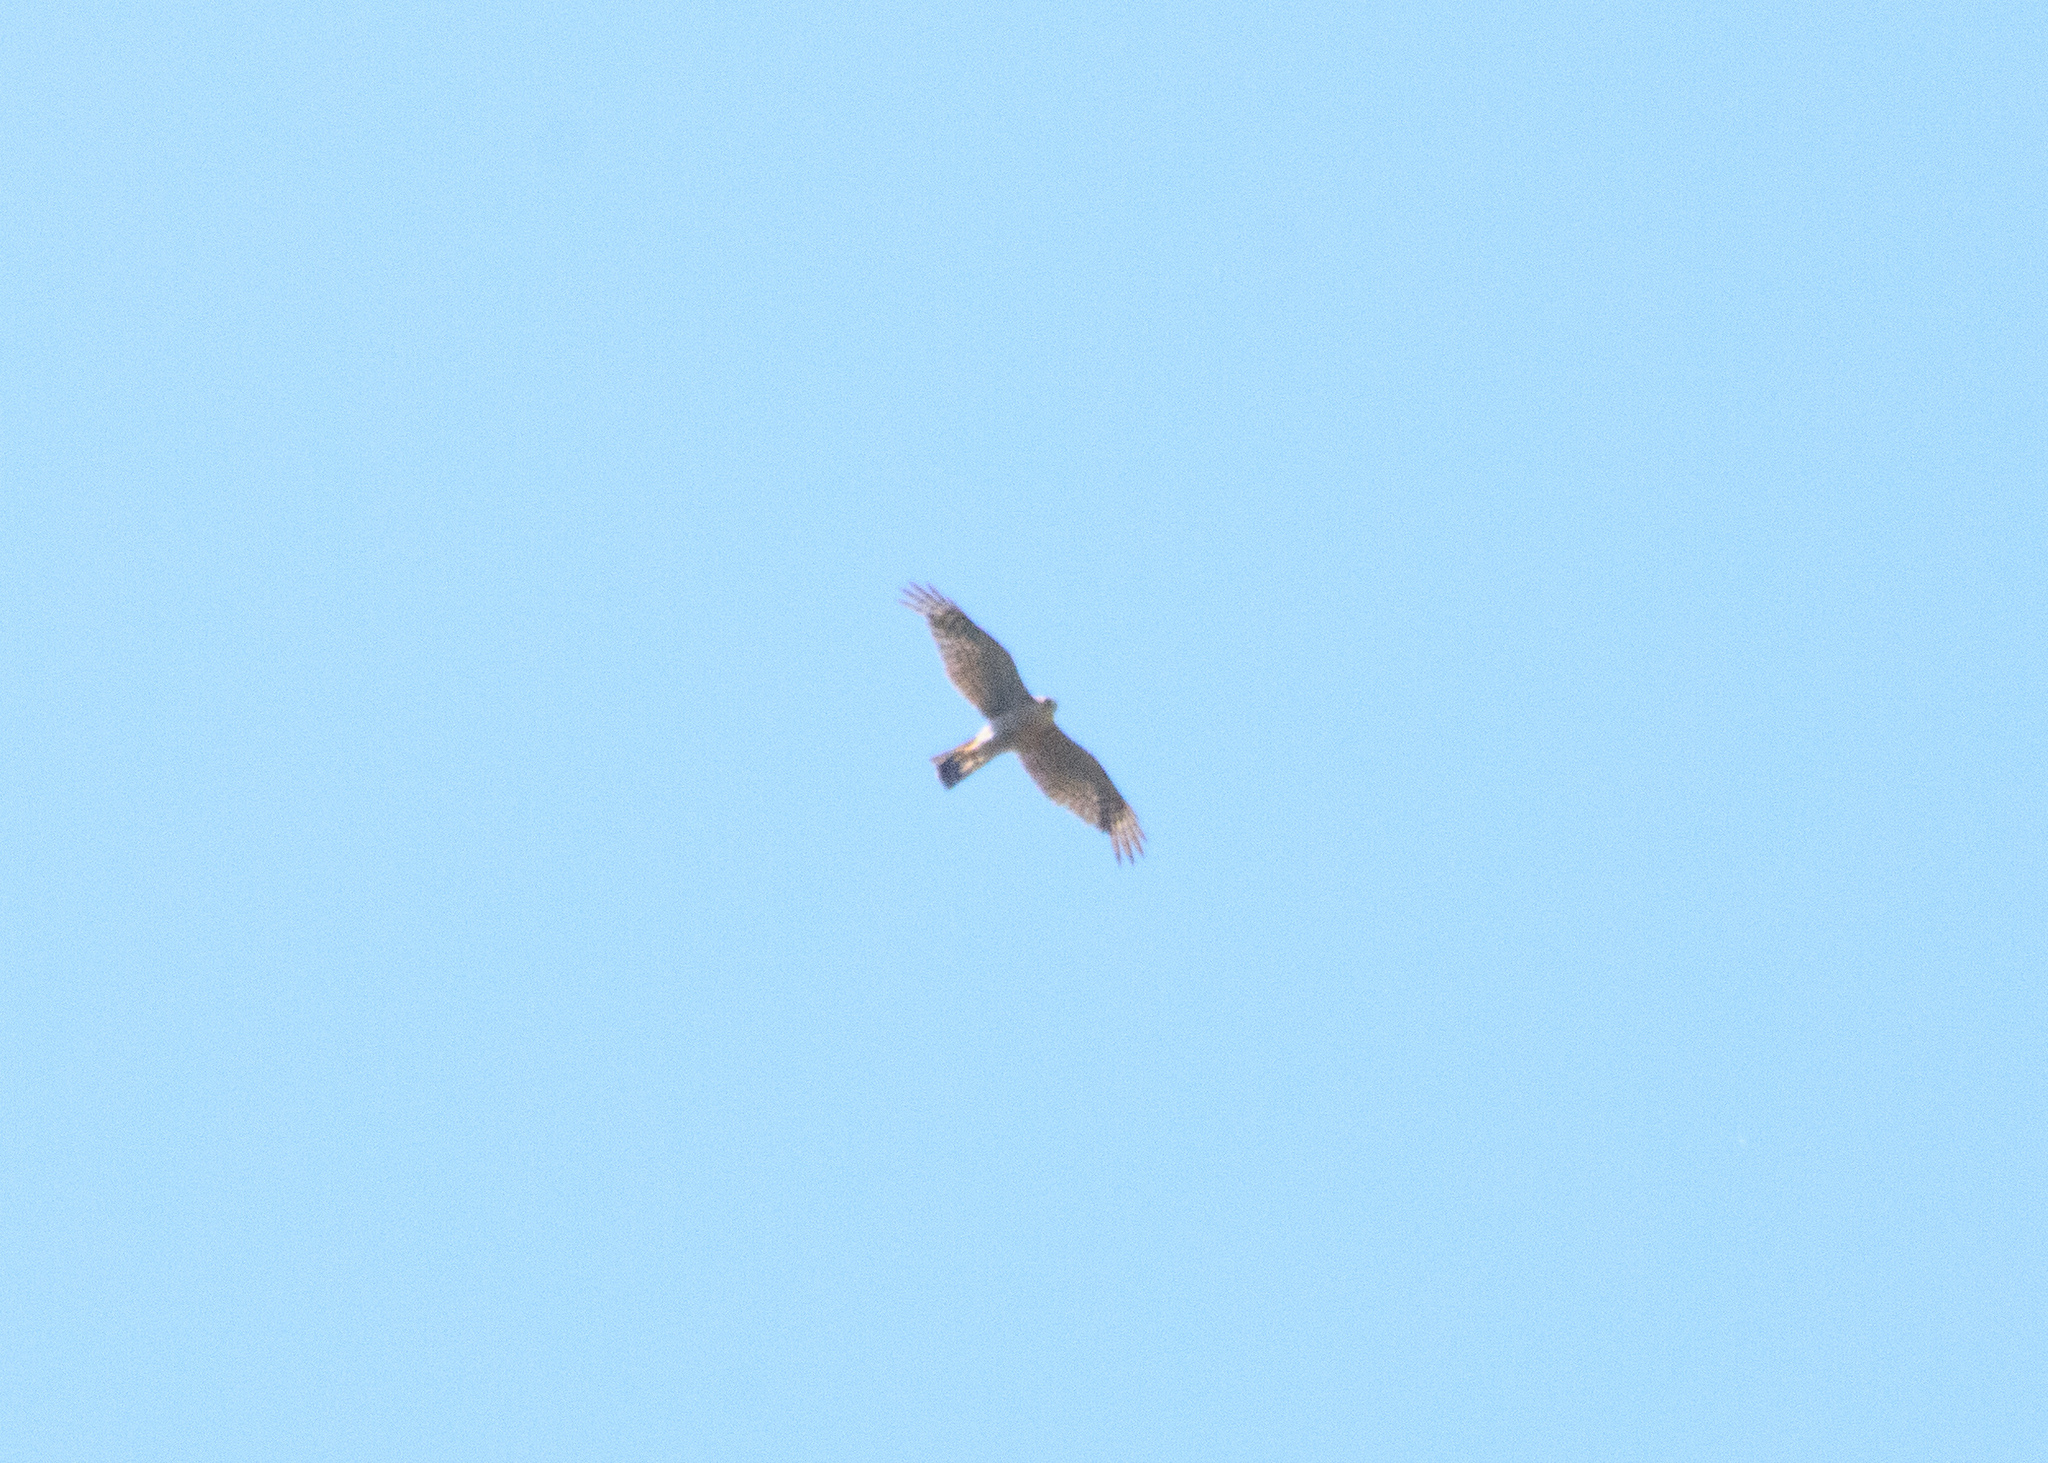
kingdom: Animalia
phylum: Chordata
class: Aves
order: Accipitriformes
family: Accipitridae
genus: Accipiter
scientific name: Accipiter nisus
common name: Eurasian sparrowhawk
